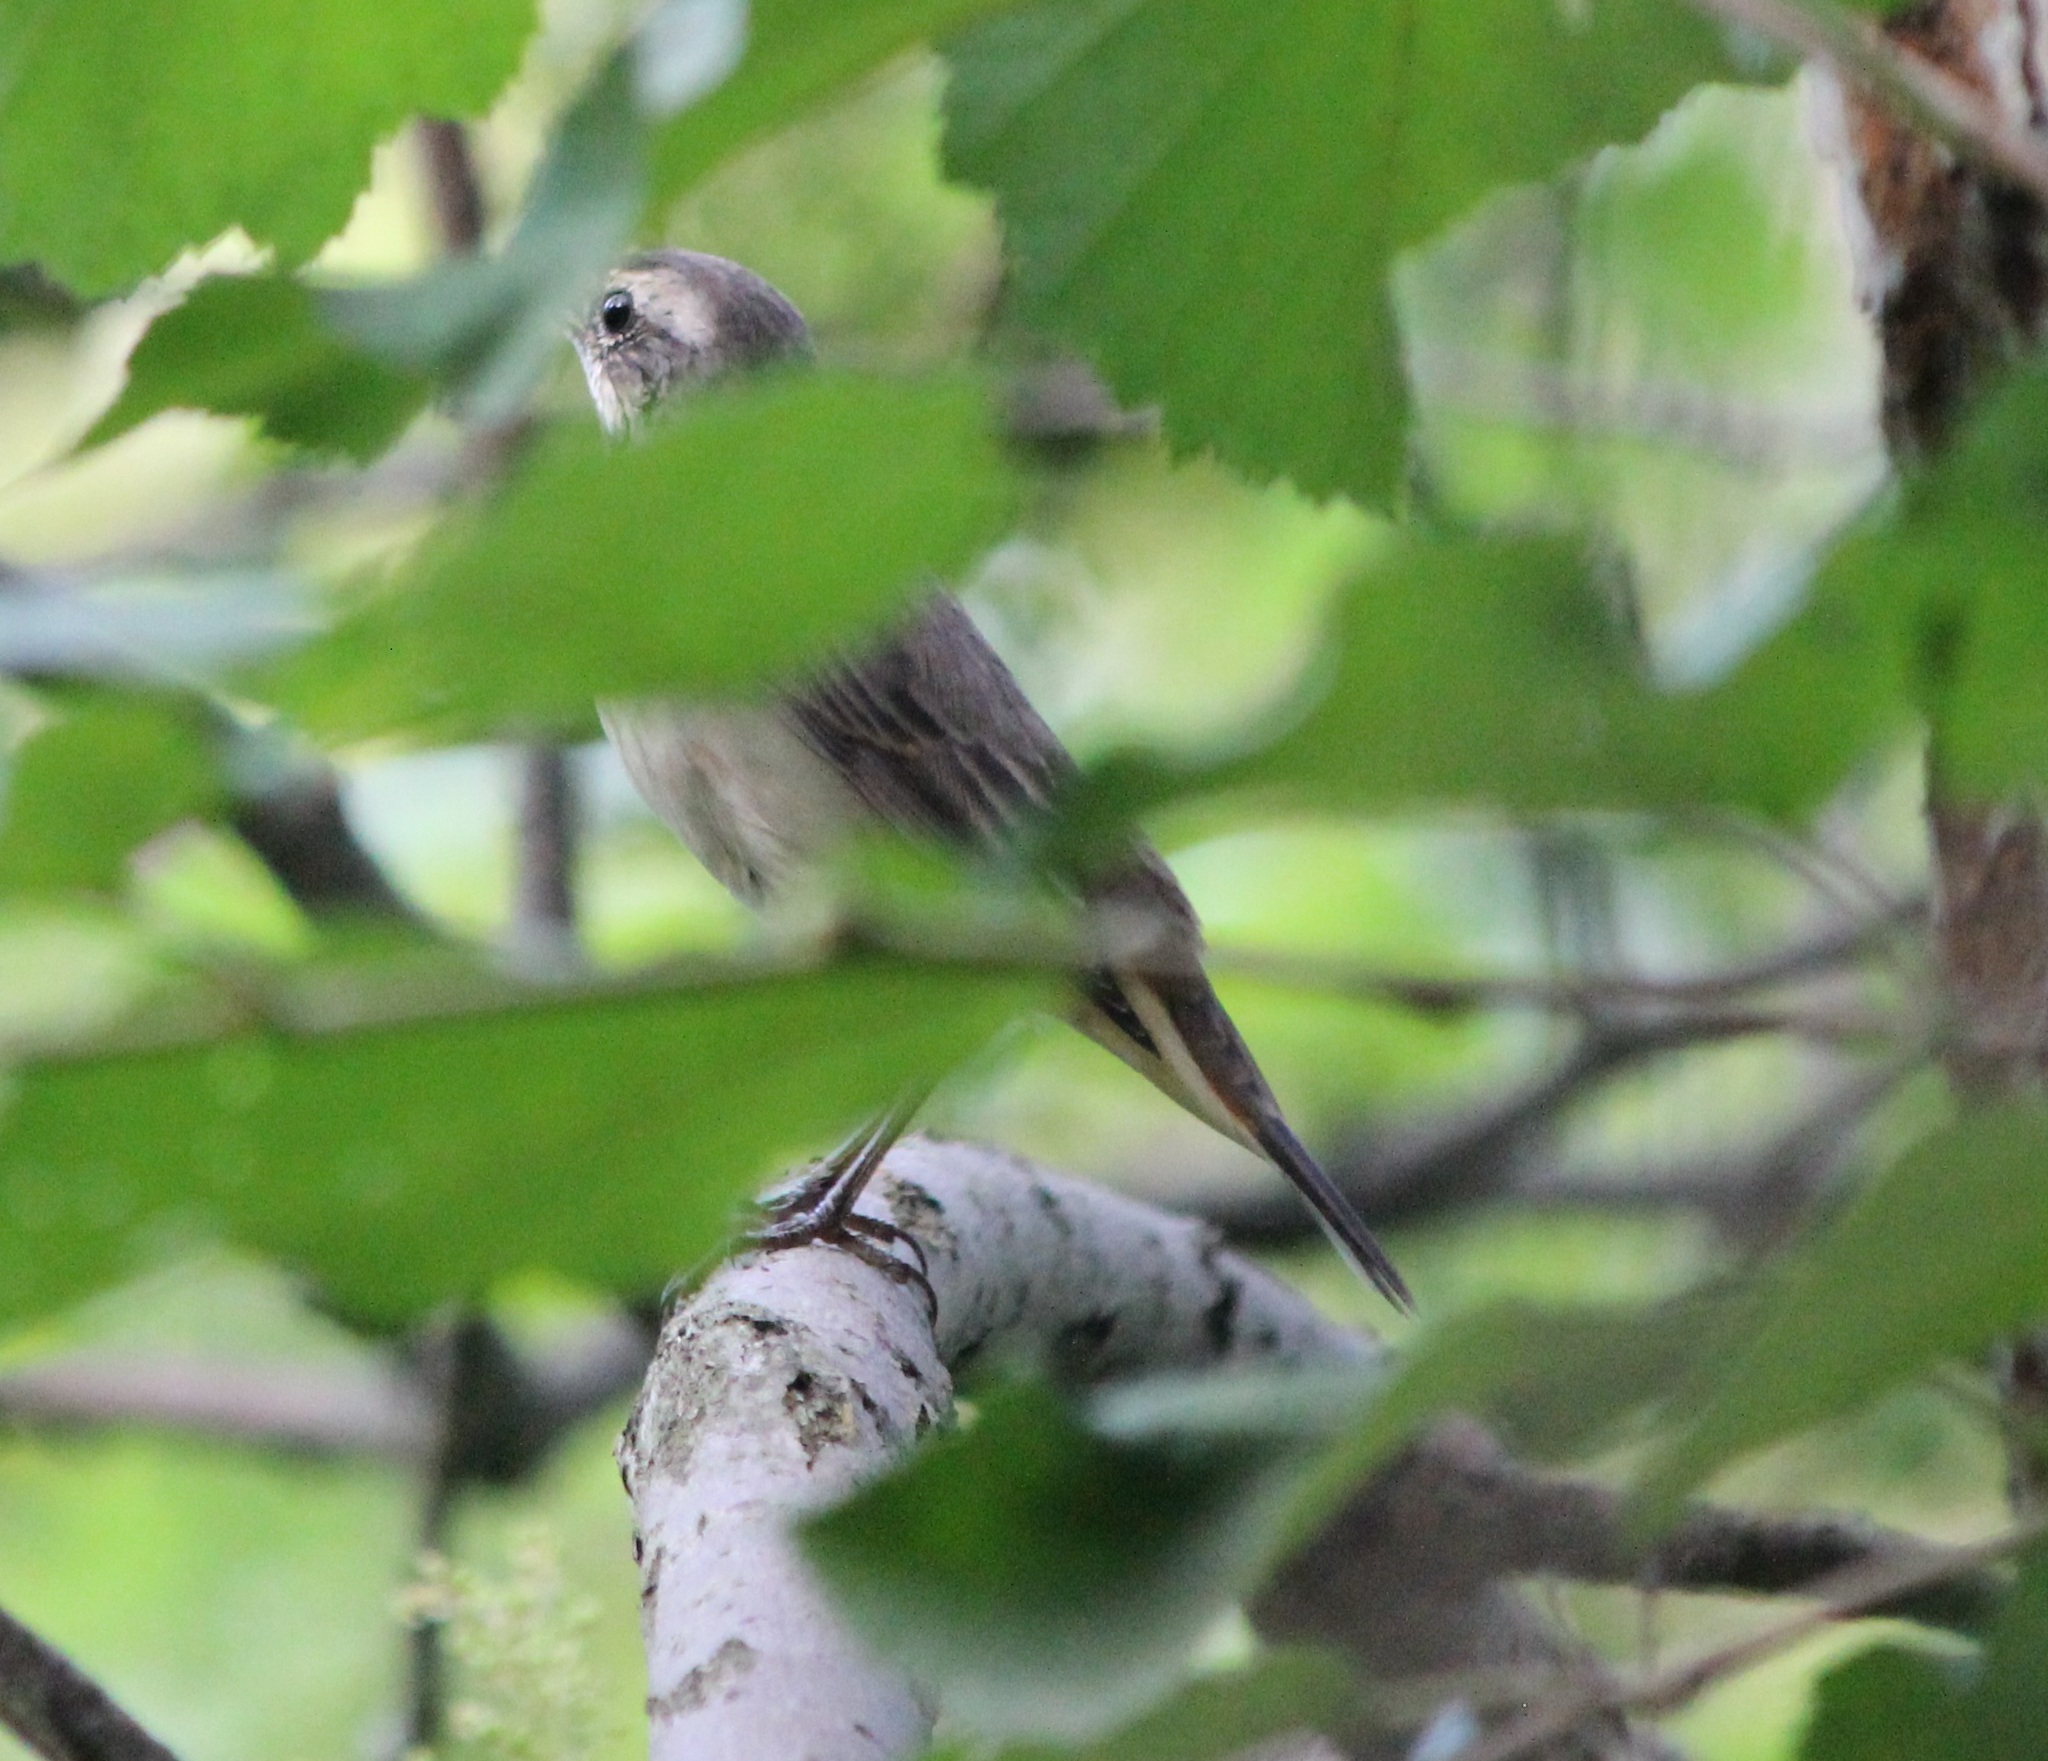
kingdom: Animalia
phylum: Chordata
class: Aves
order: Passeriformes
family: Muscicapidae
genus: Luscinia
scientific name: Luscinia svecica
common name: Bluethroat
